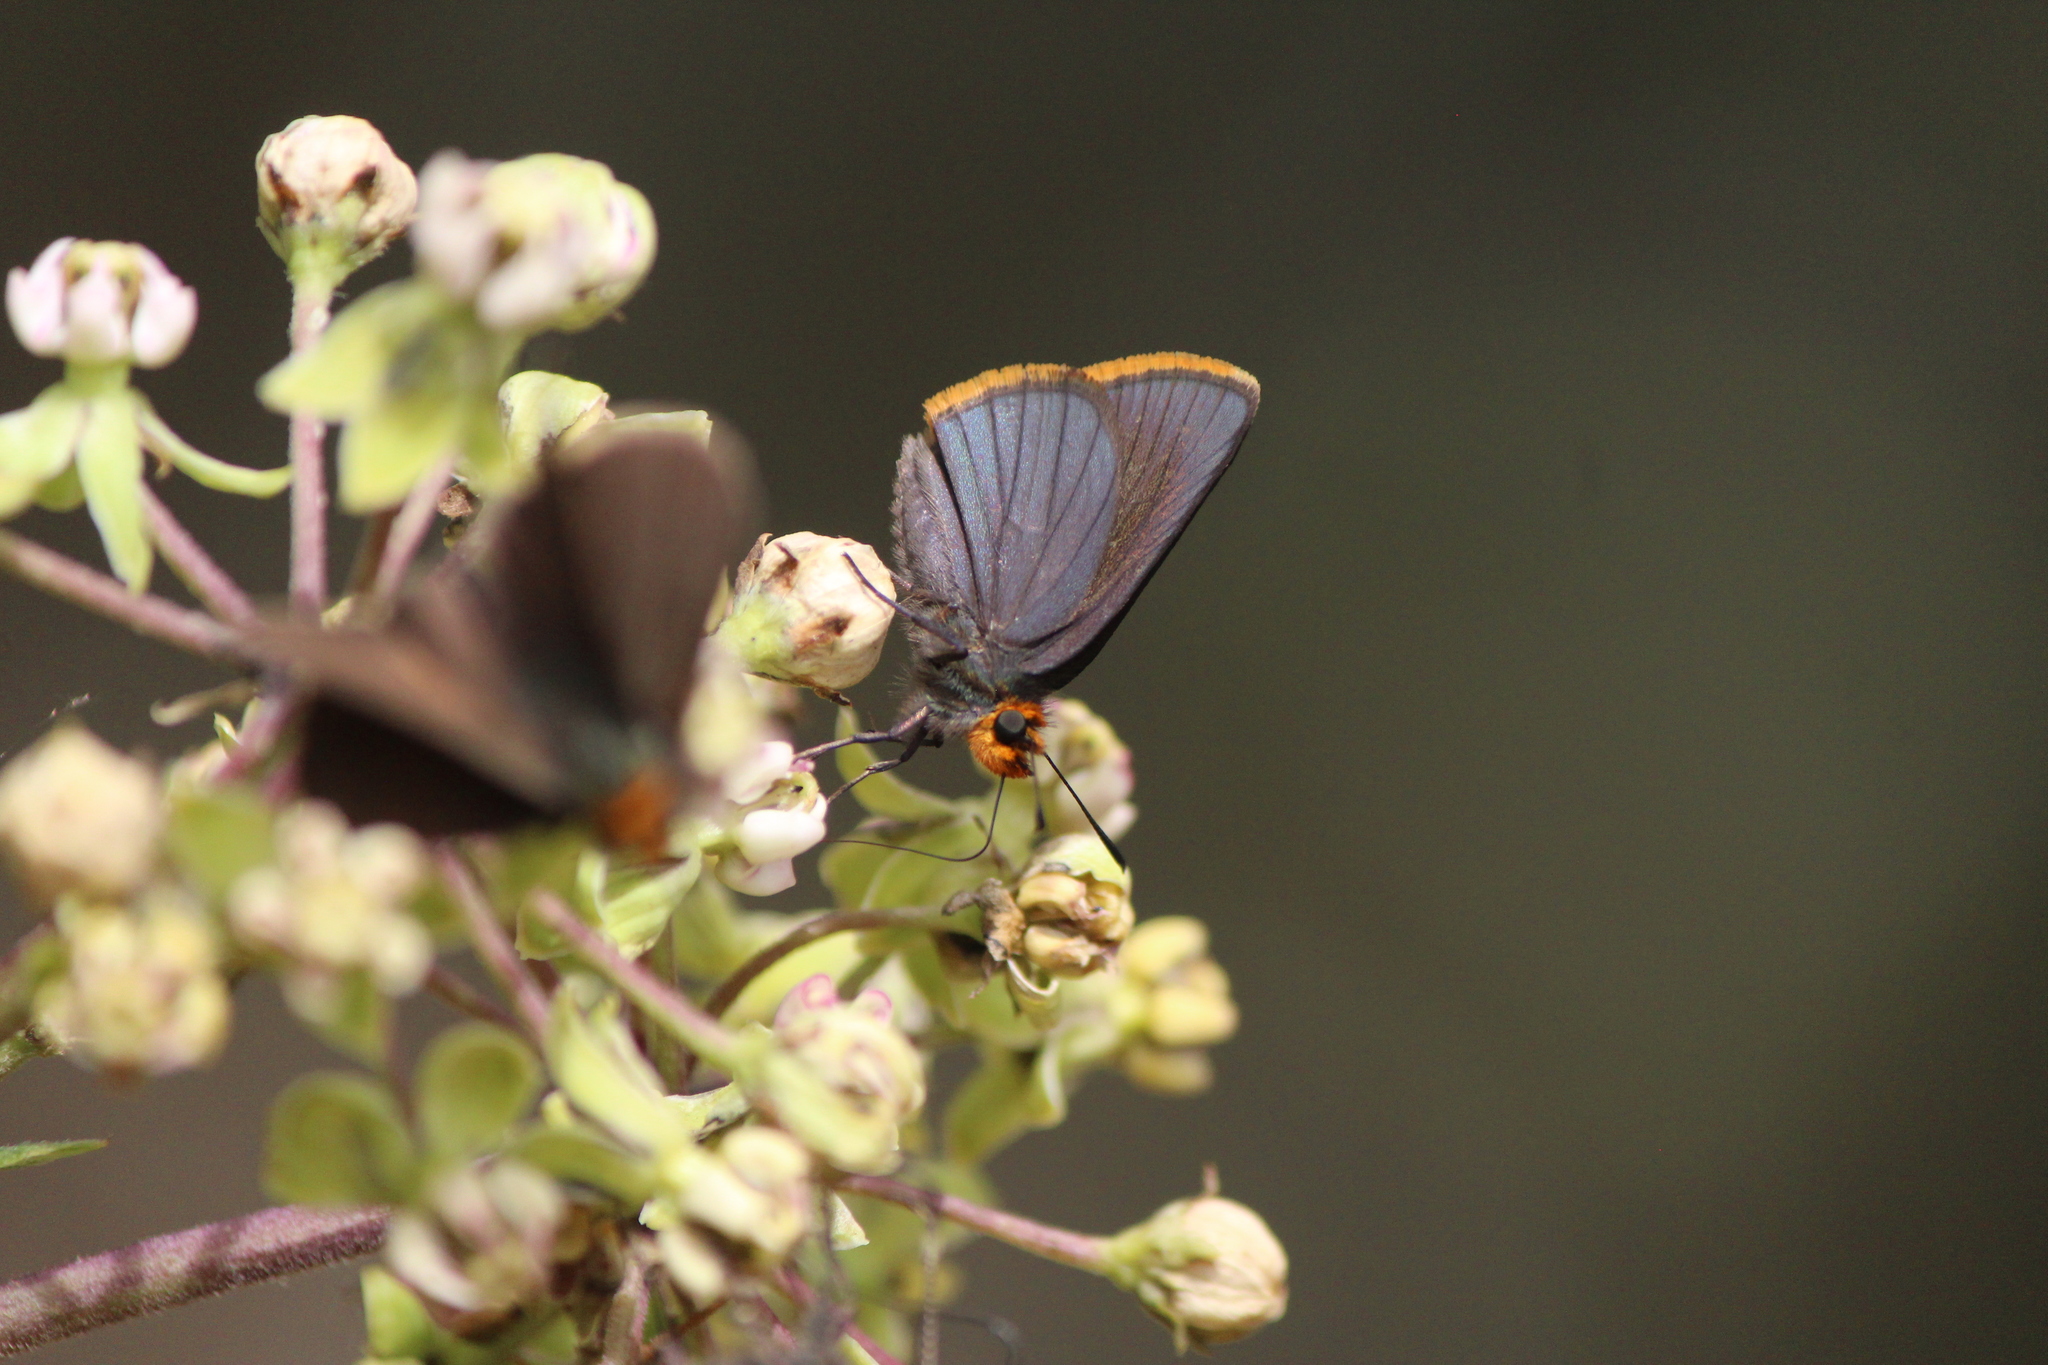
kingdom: Animalia
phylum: Arthropoda
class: Insecta
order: Lepidoptera
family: Hesperiidae
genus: Mastor
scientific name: Mastor fimbriata
